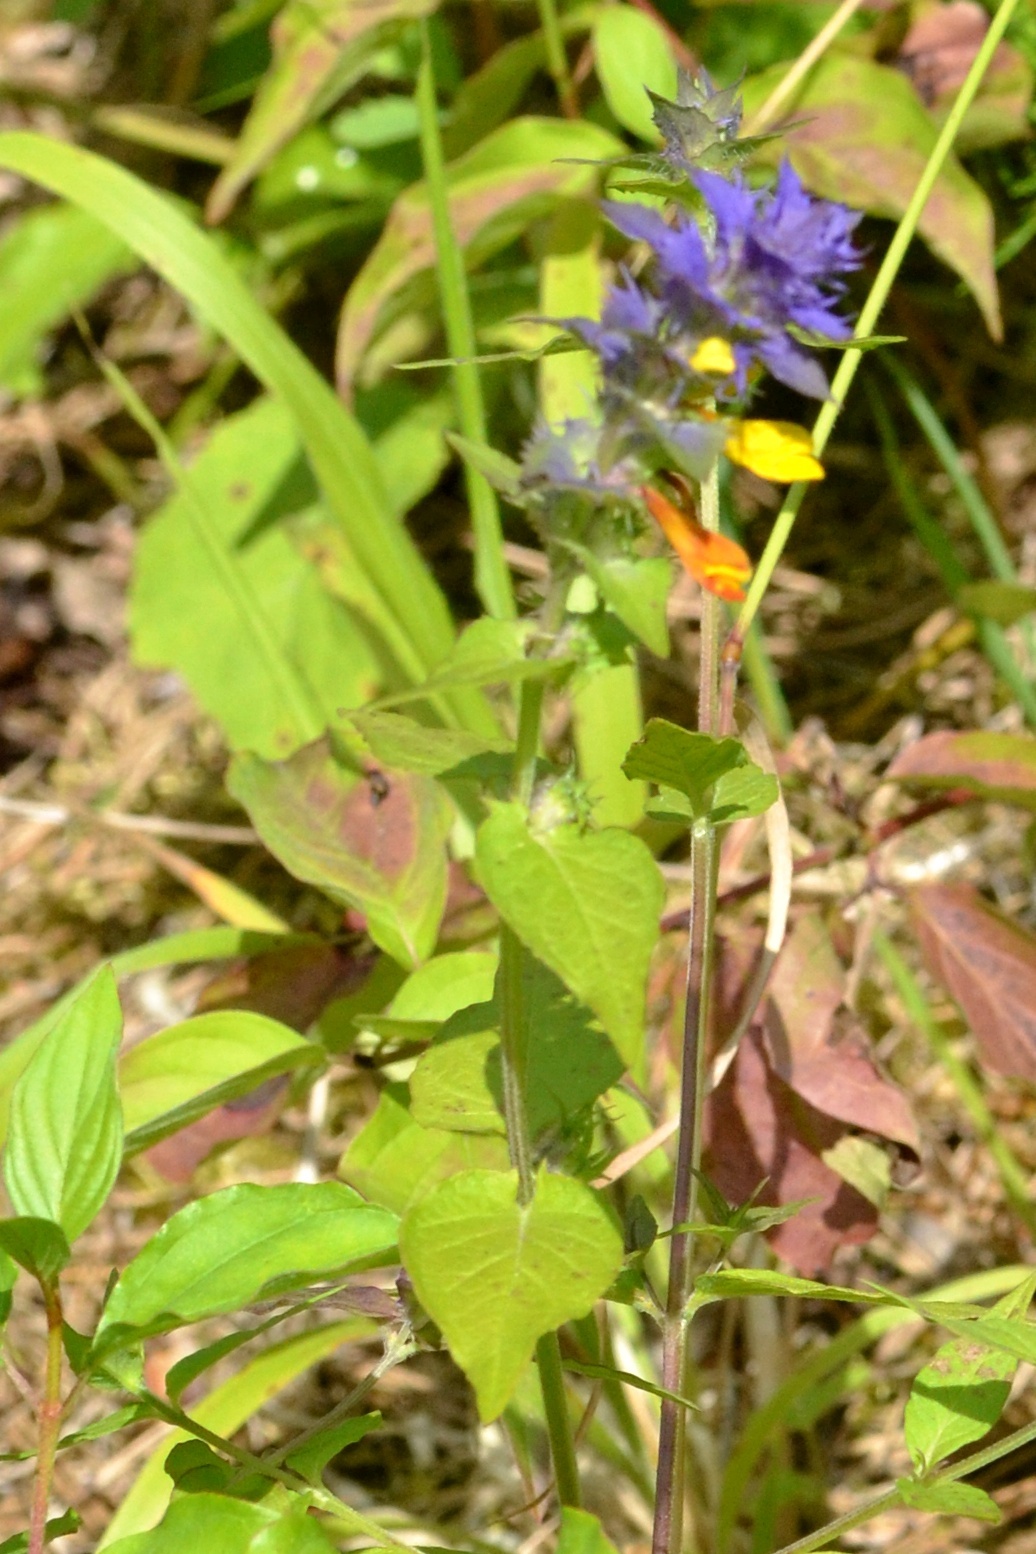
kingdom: Plantae
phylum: Tracheophyta
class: Magnoliopsida
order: Lamiales
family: Orobanchaceae
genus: Melampyrum
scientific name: Melampyrum nemorosum
